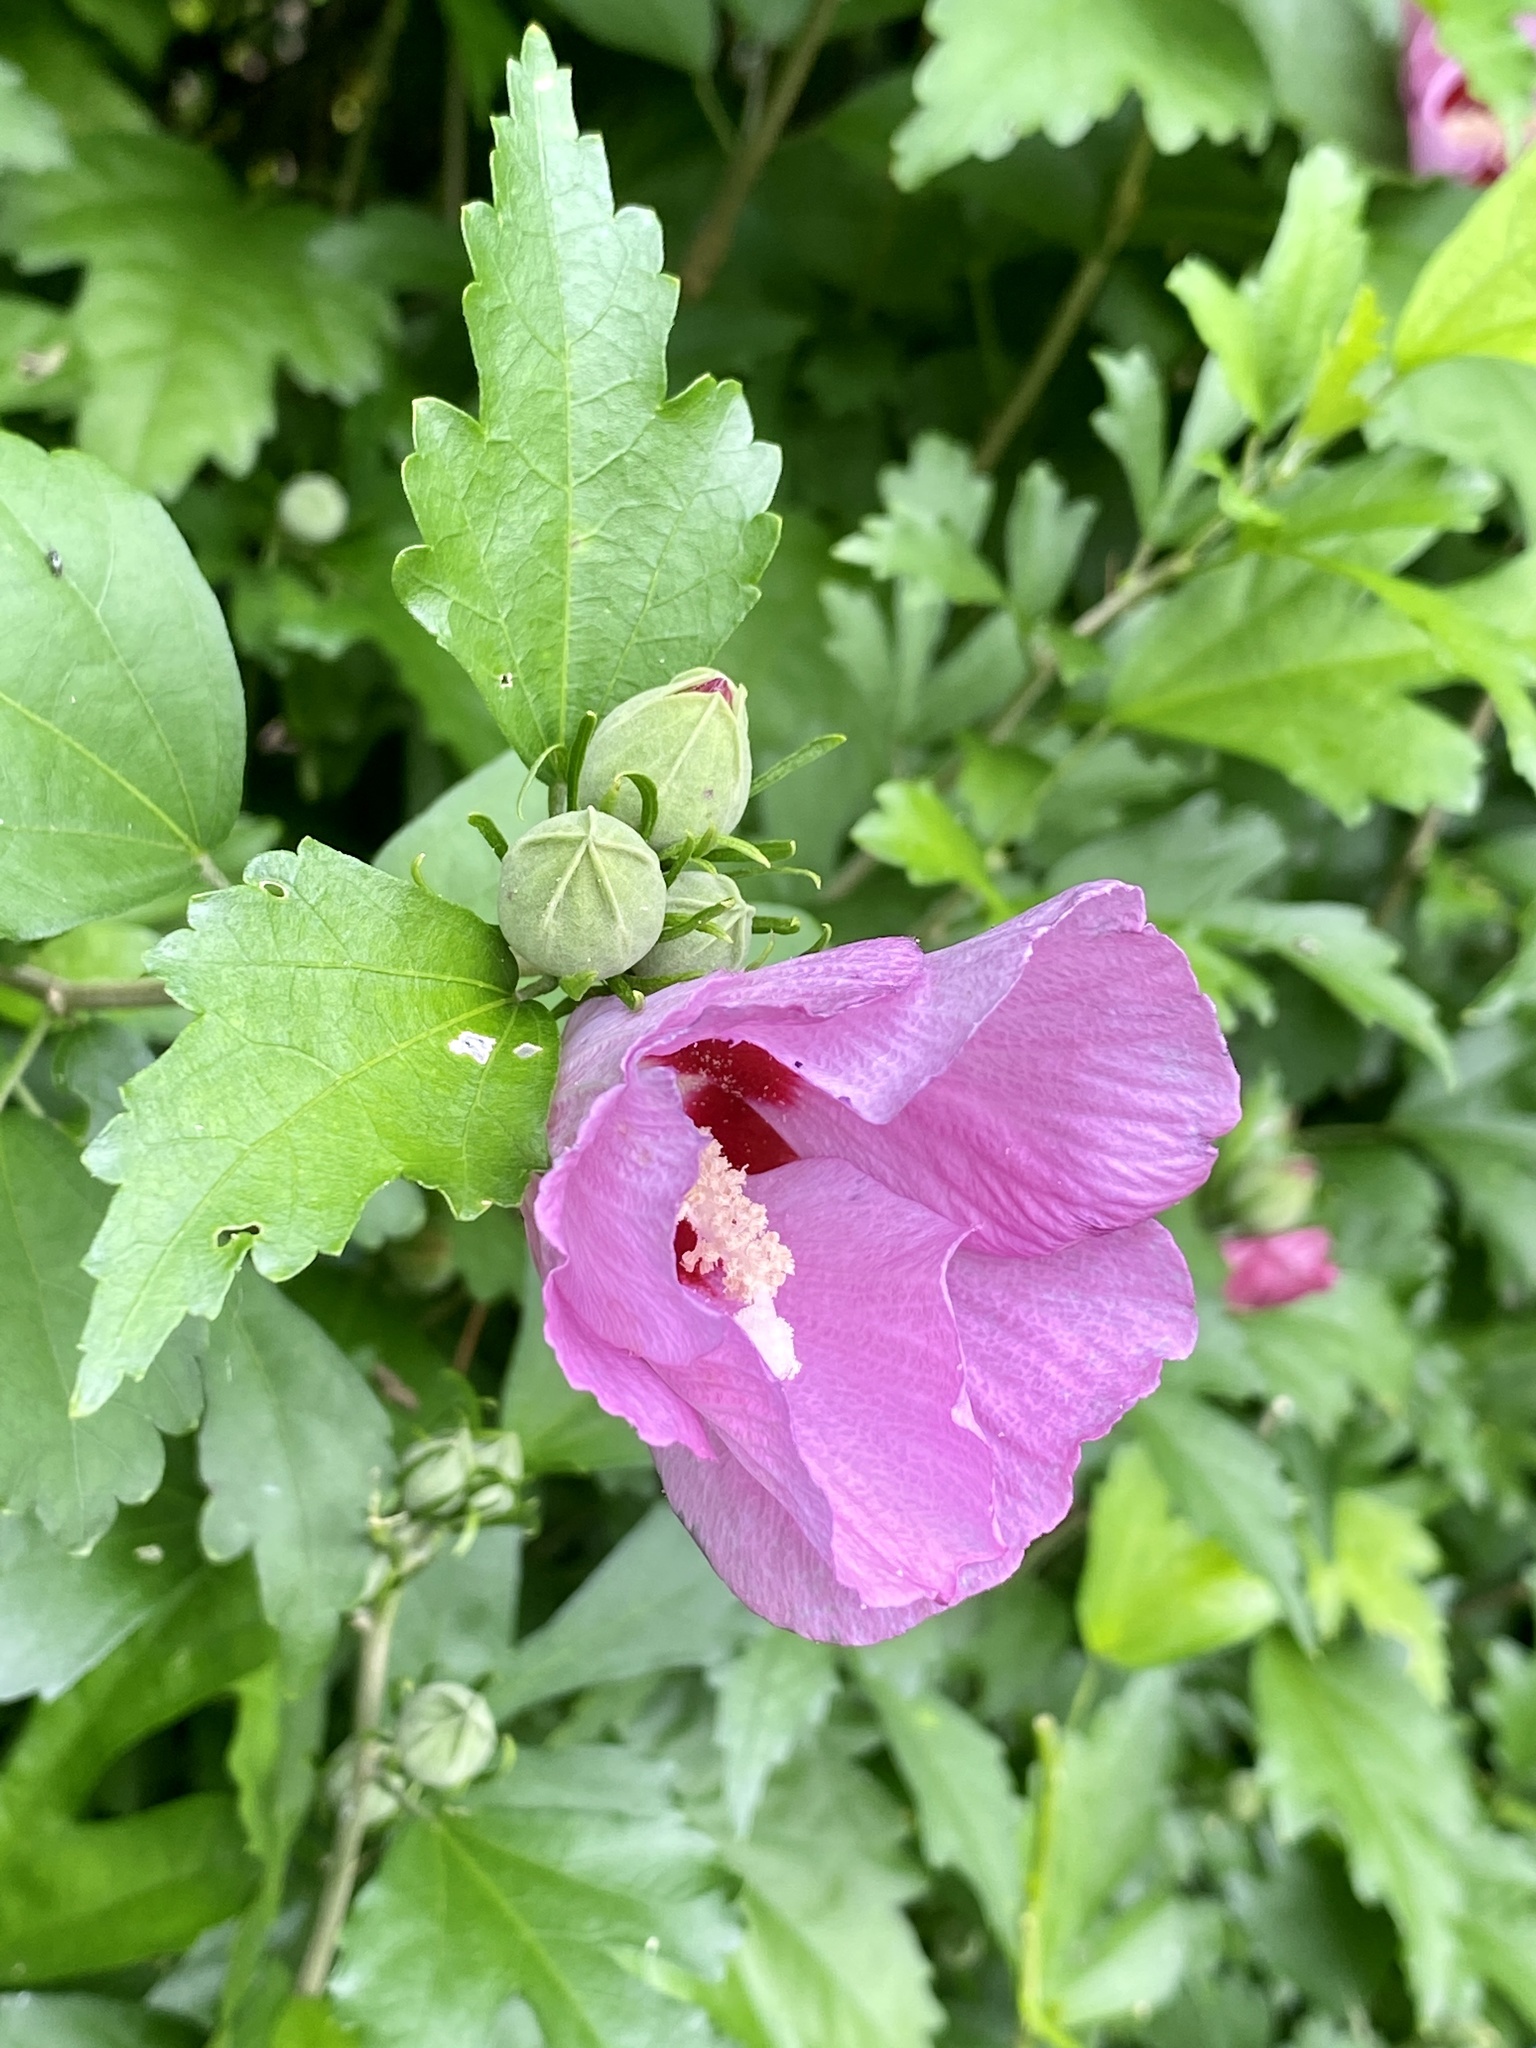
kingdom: Plantae
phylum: Tracheophyta
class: Magnoliopsida
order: Malvales
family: Malvaceae
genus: Hibiscus
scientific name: Hibiscus syriacus
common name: Syrian ketmia
